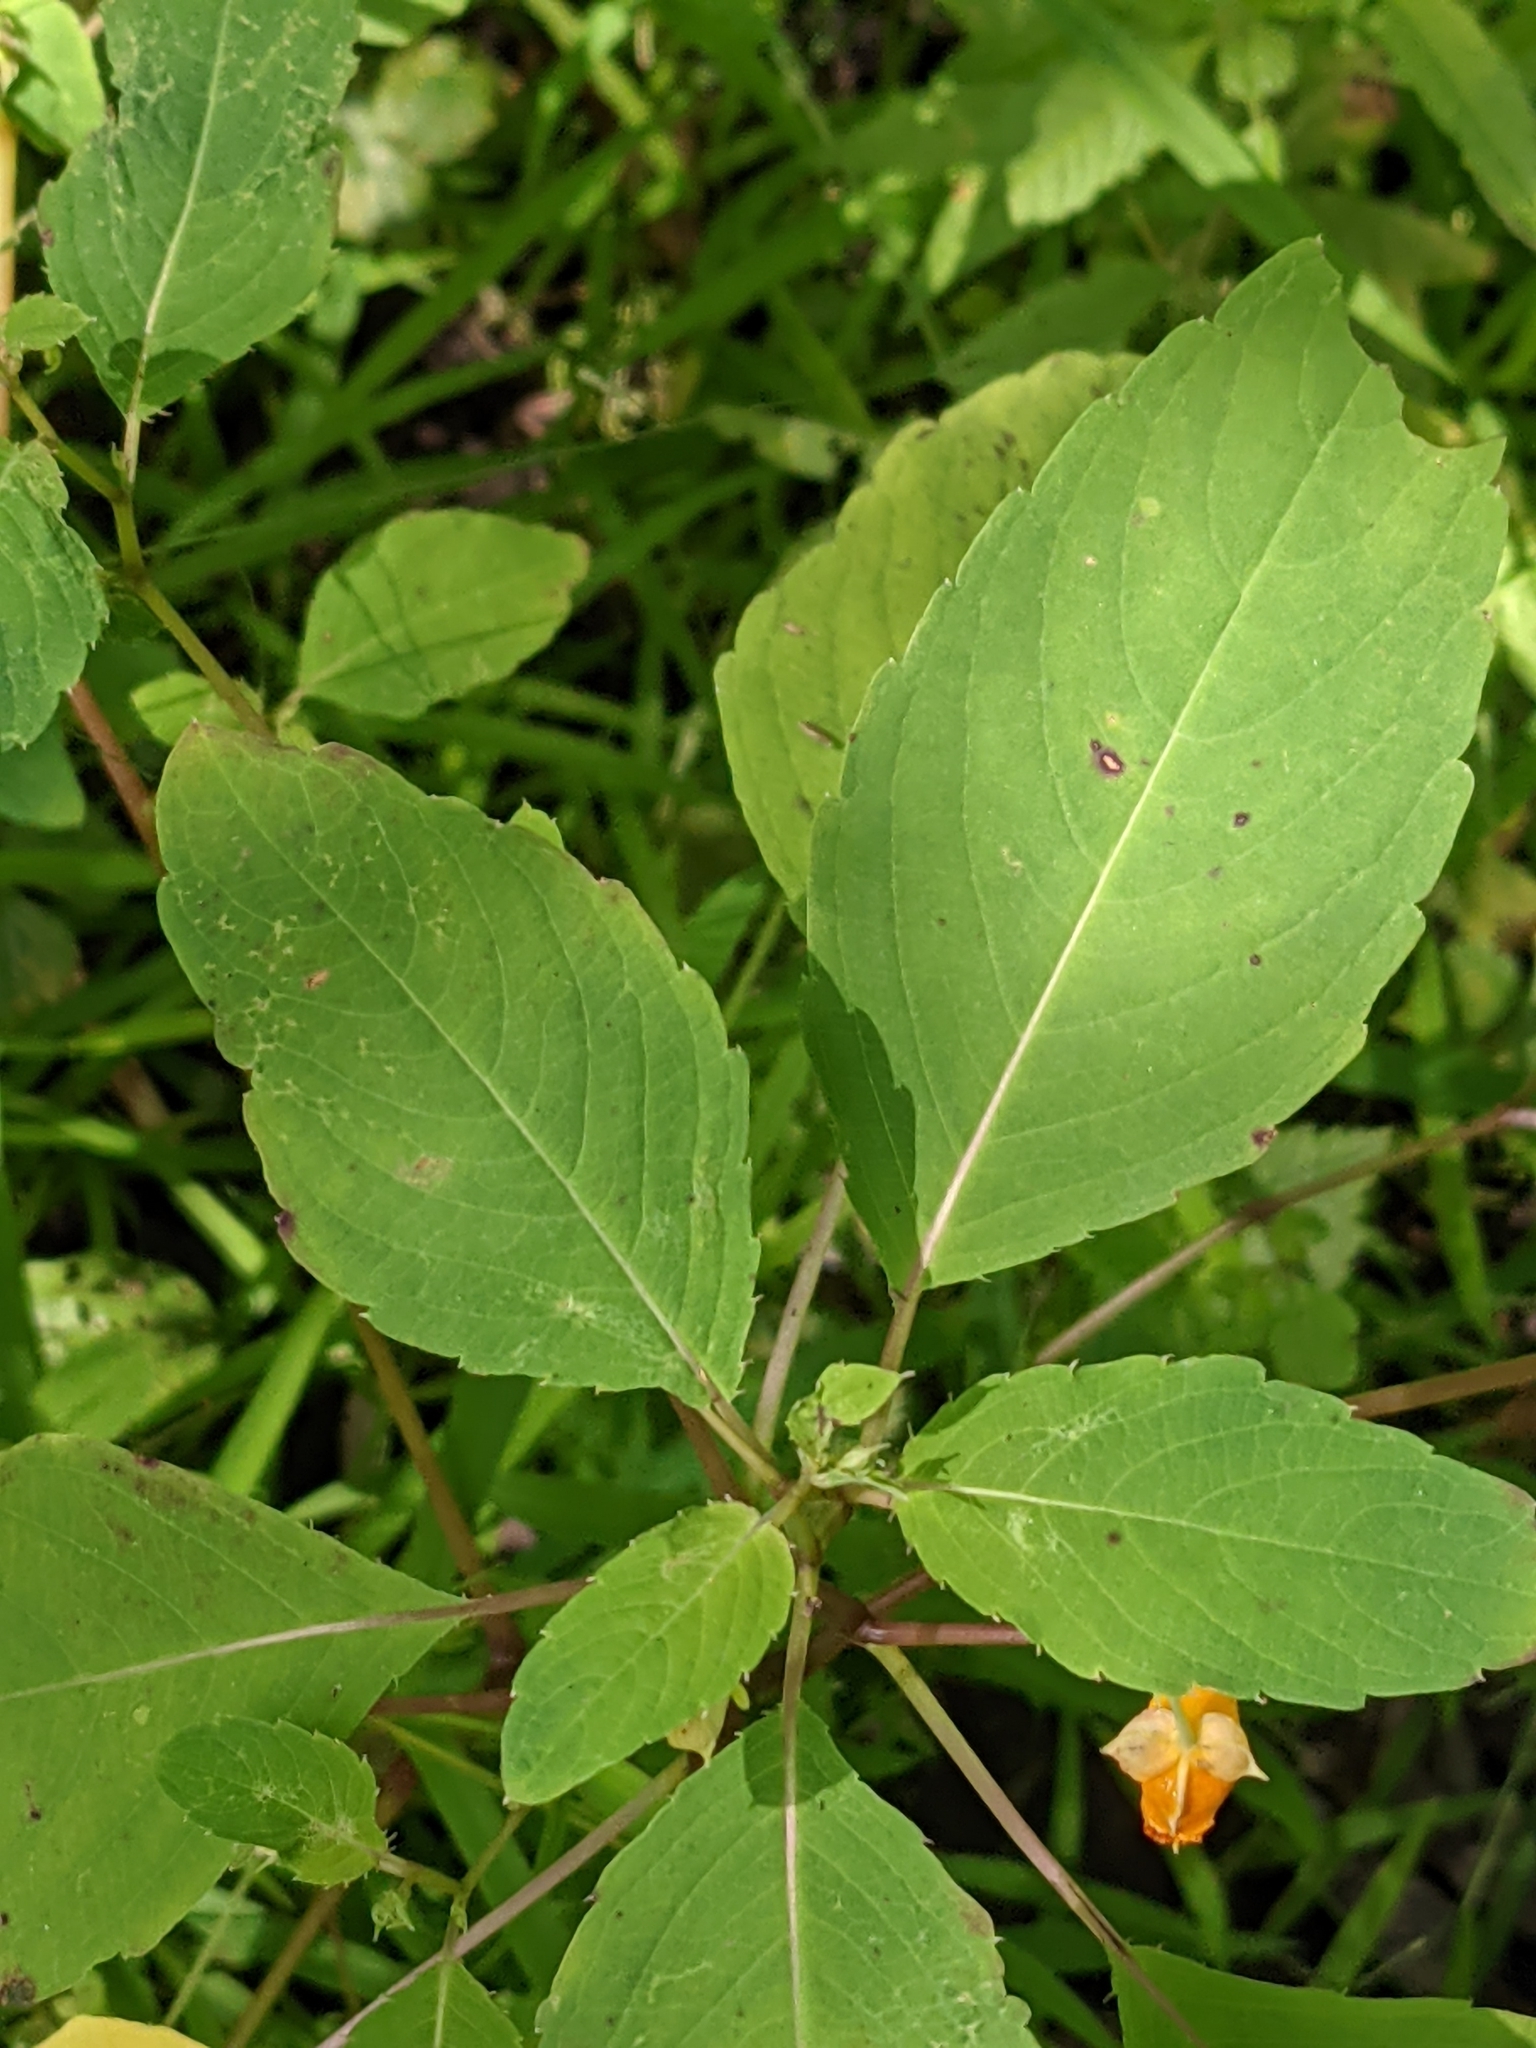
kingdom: Plantae
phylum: Tracheophyta
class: Magnoliopsida
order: Ericales
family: Balsaminaceae
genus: Impatiens
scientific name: Impatiens capensis
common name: Orange balsam
